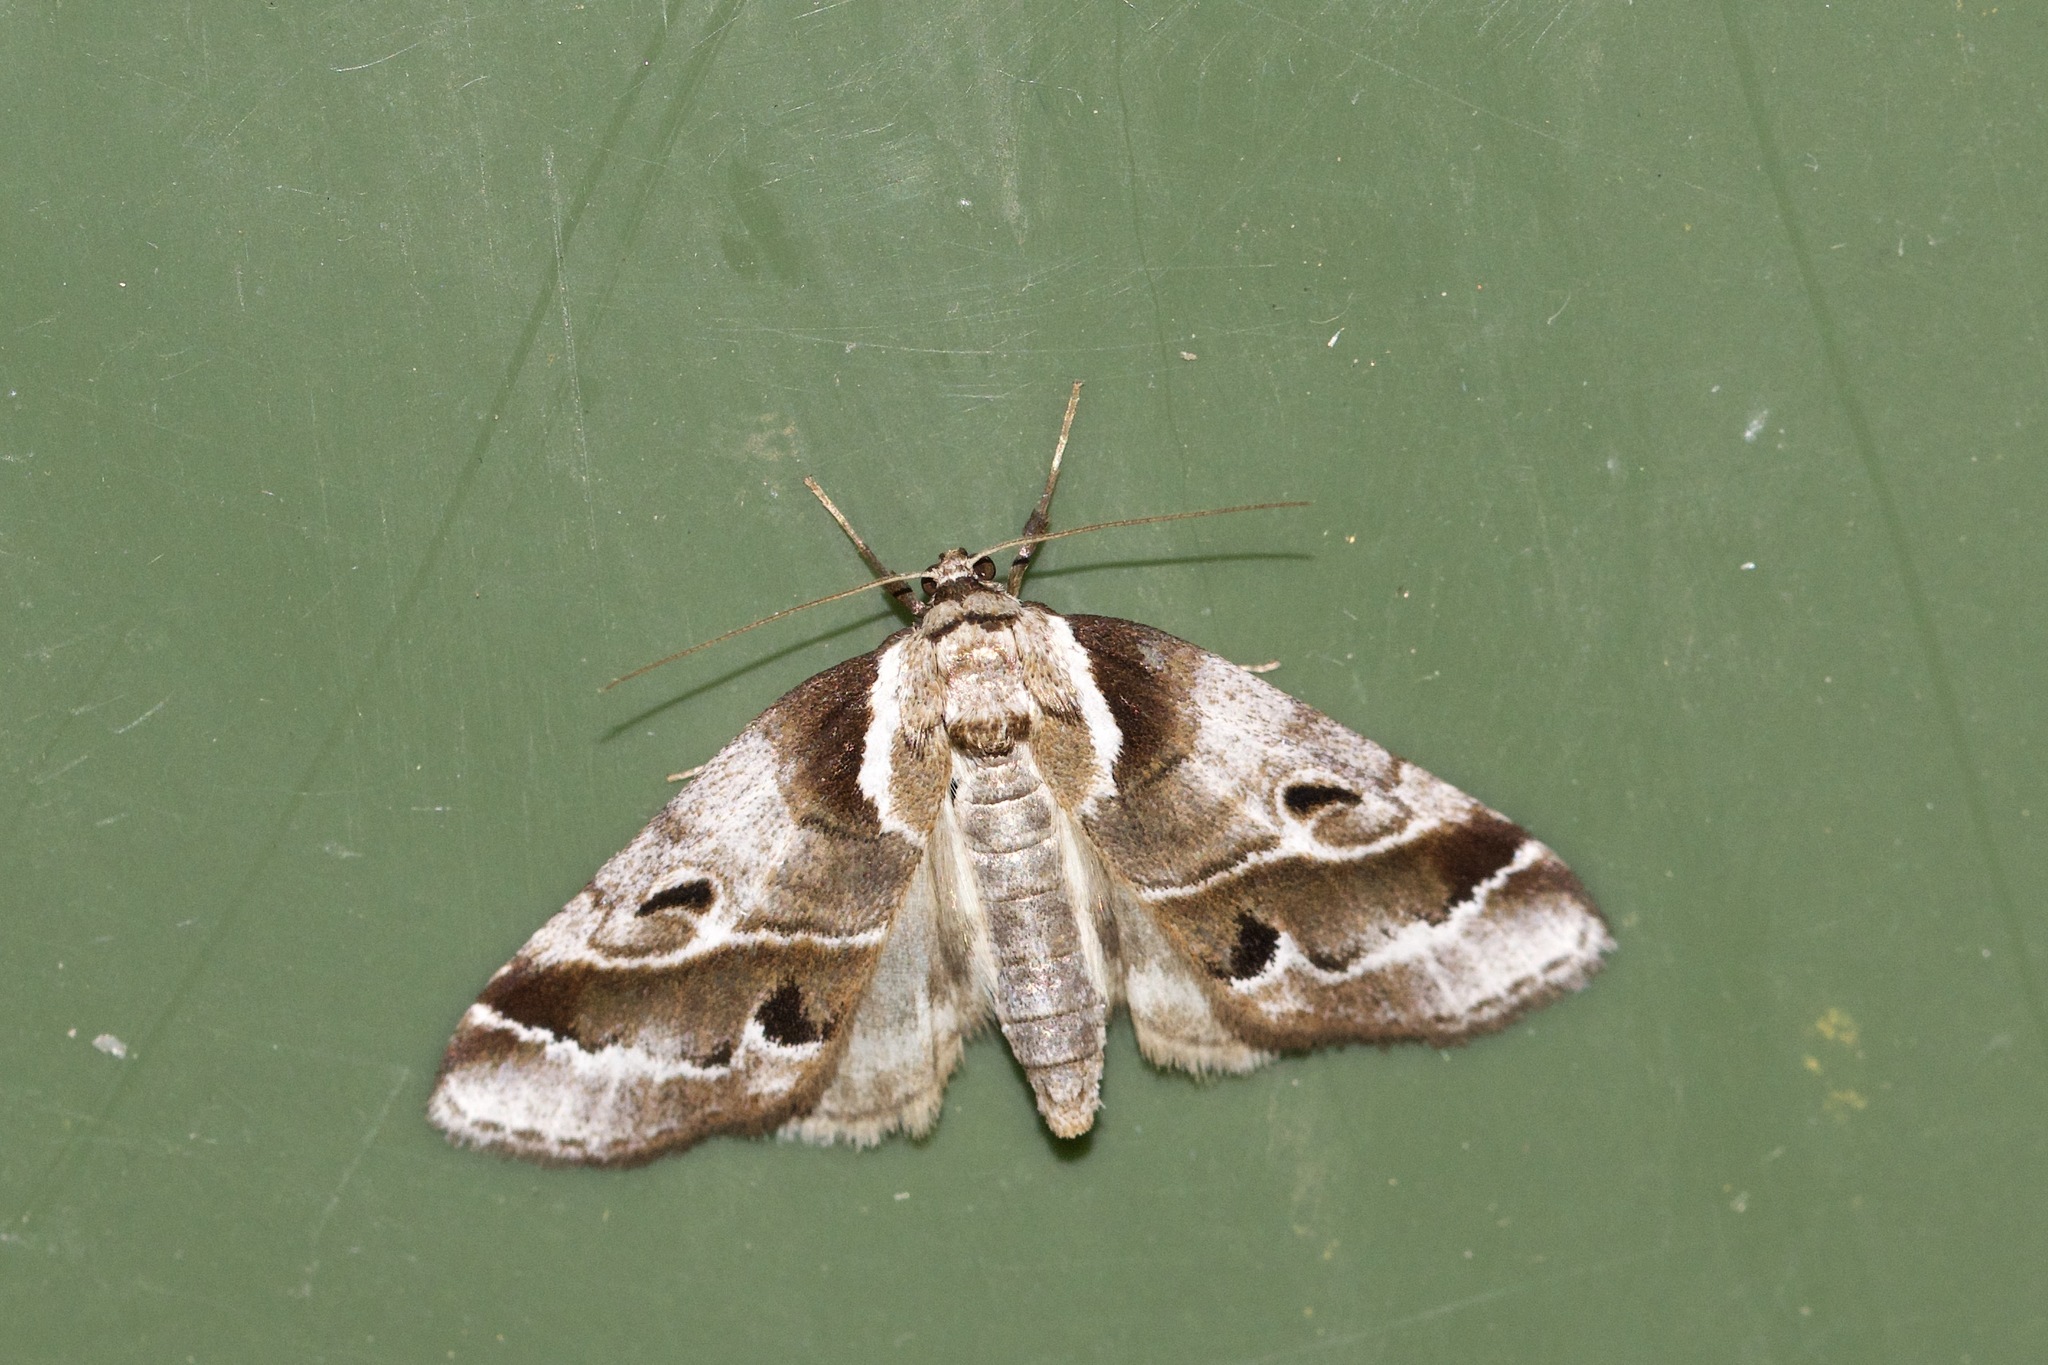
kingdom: Animalia
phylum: Arthropoda
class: Insecta
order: Lepidoptera
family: Nolidae
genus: Baileya
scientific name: Baileya doubledayi
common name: Doubleday's baileya moth
